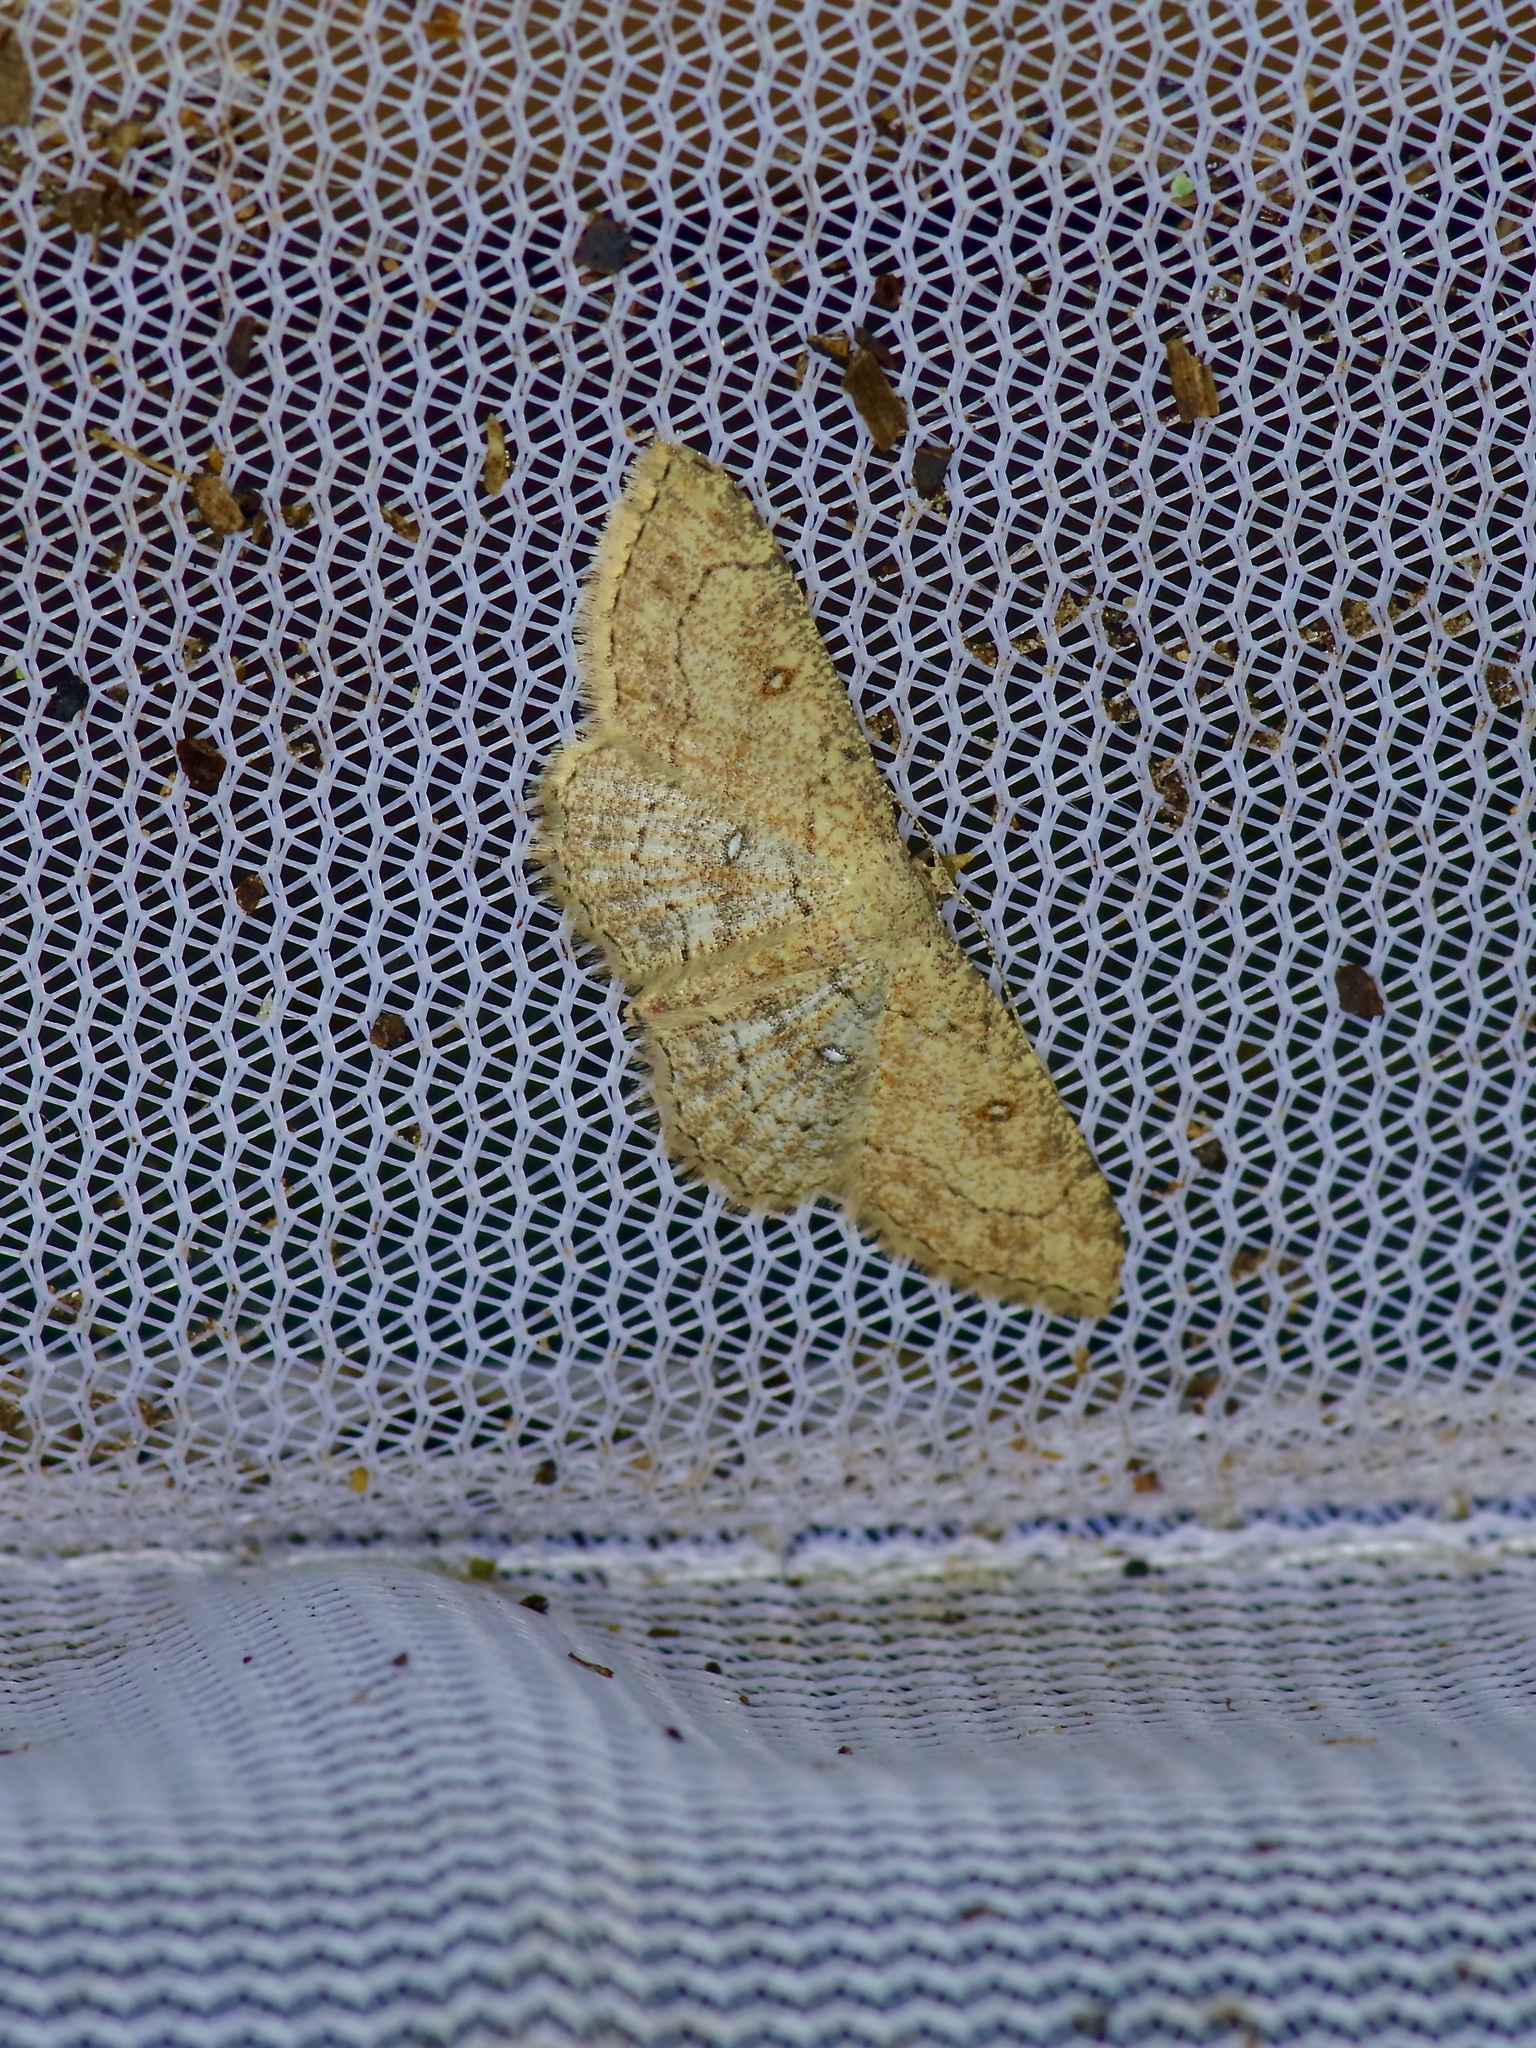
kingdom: Animalia
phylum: Arthropoda
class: Insecta
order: Lepidoptera
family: Geometridae
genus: Cyclophora
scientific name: Cyclophora nanaria
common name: Cankerworm
